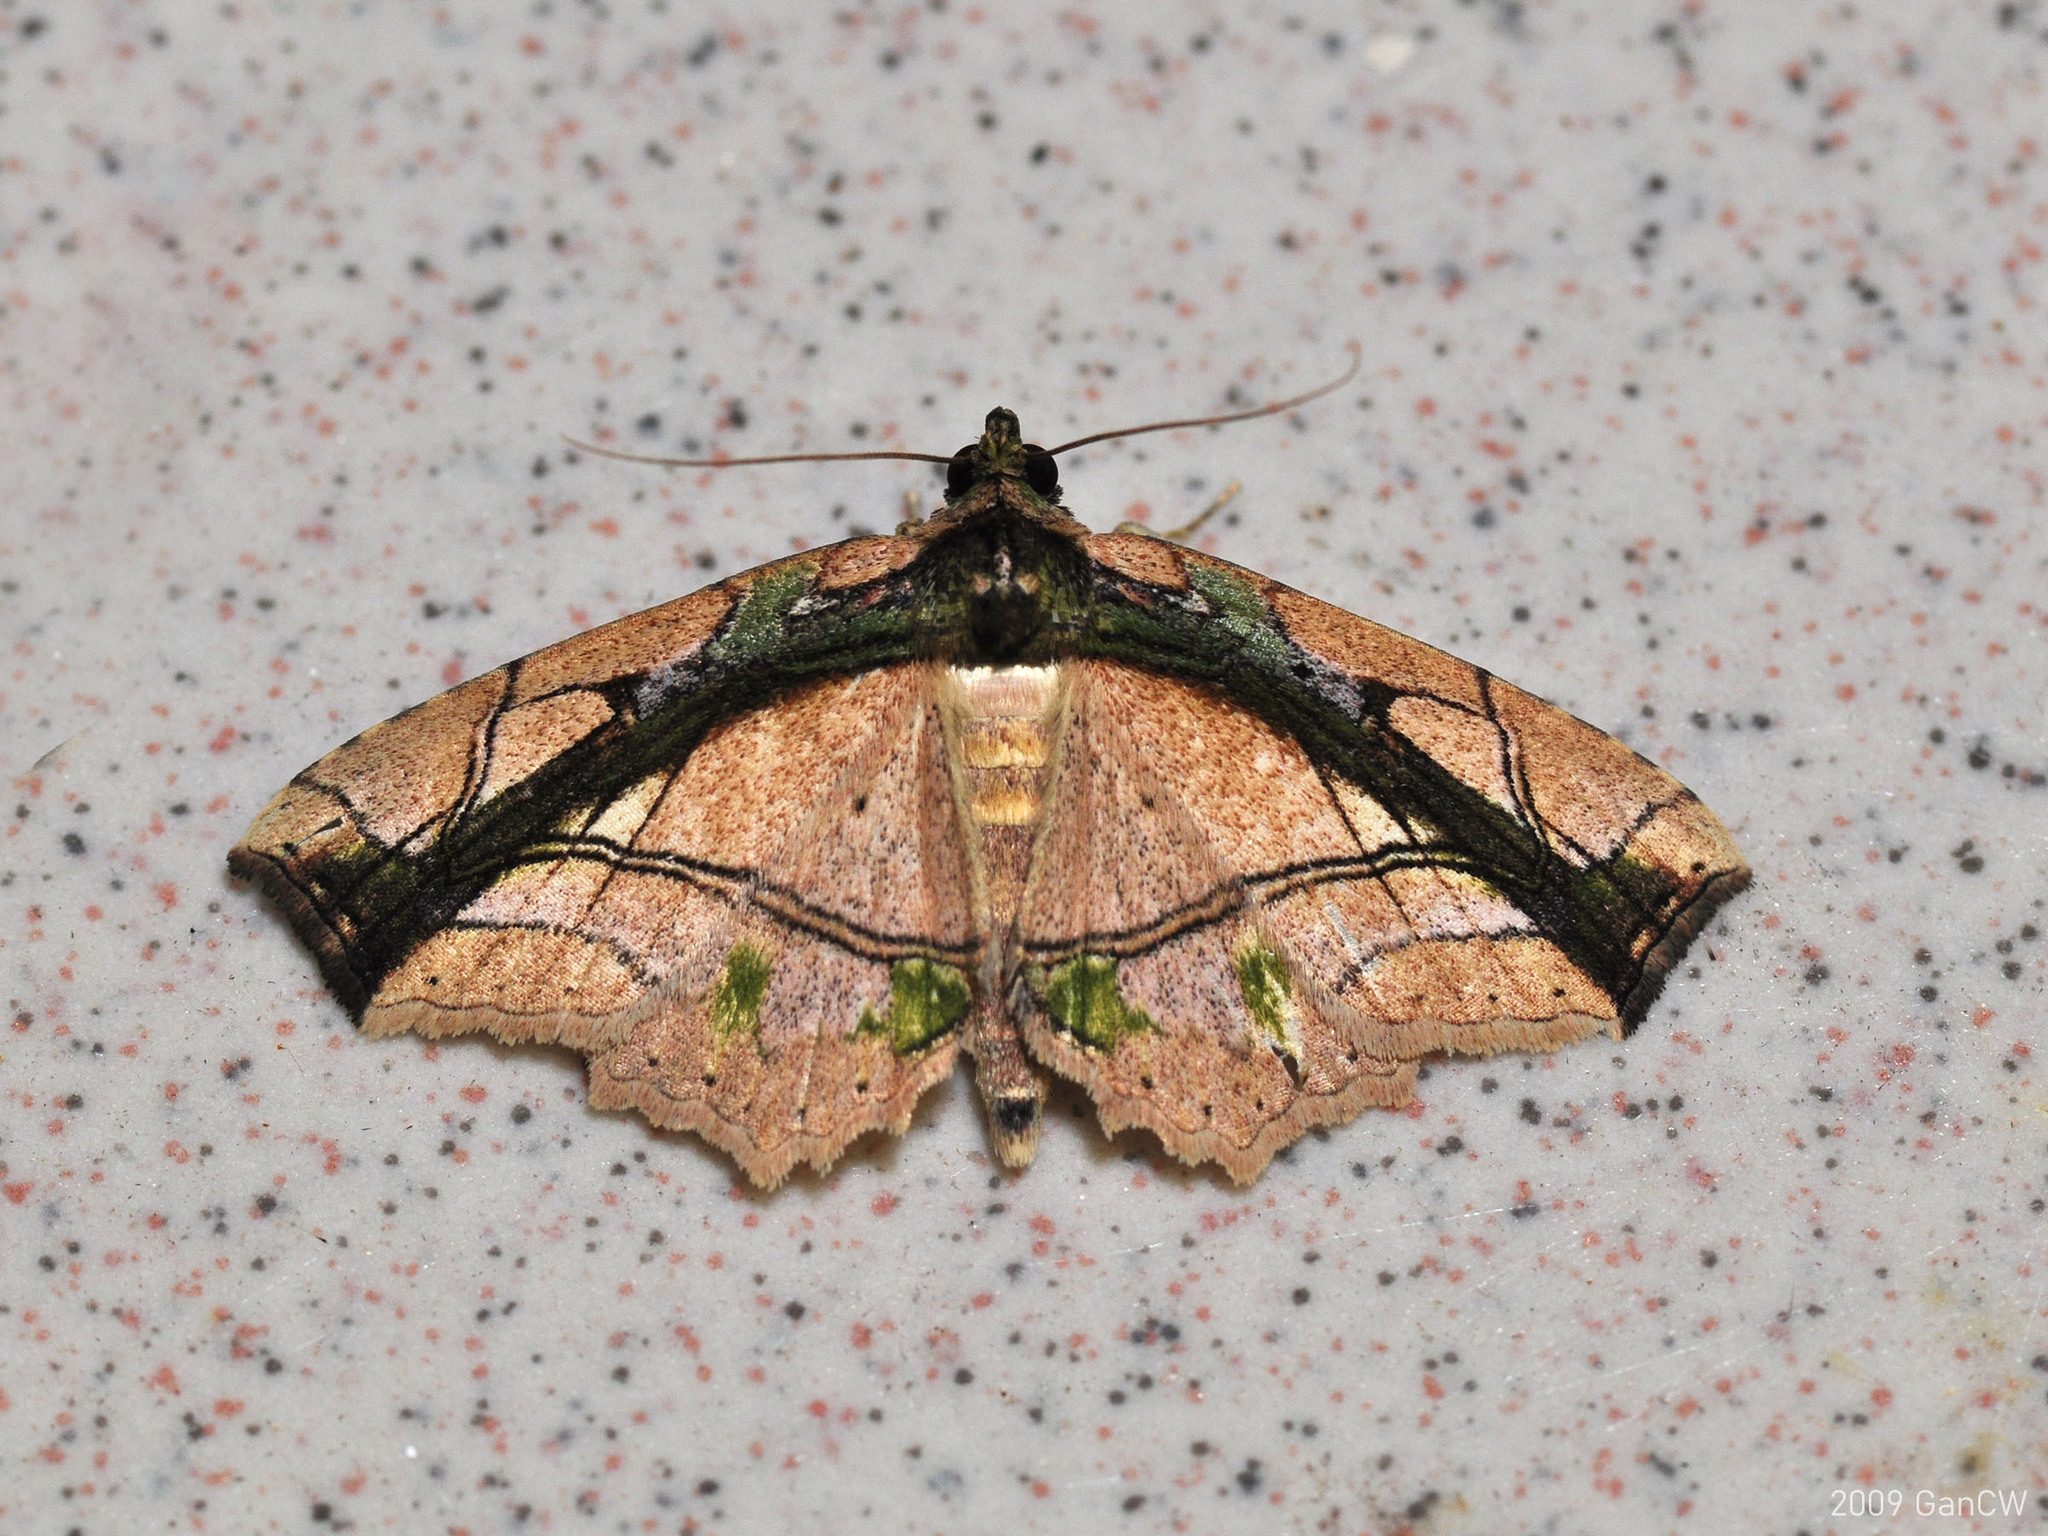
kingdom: Animalia
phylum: Arthropoda
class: Insecta
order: Lepidoptera
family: Erebidae
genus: Tamba
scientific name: Tamba lala
